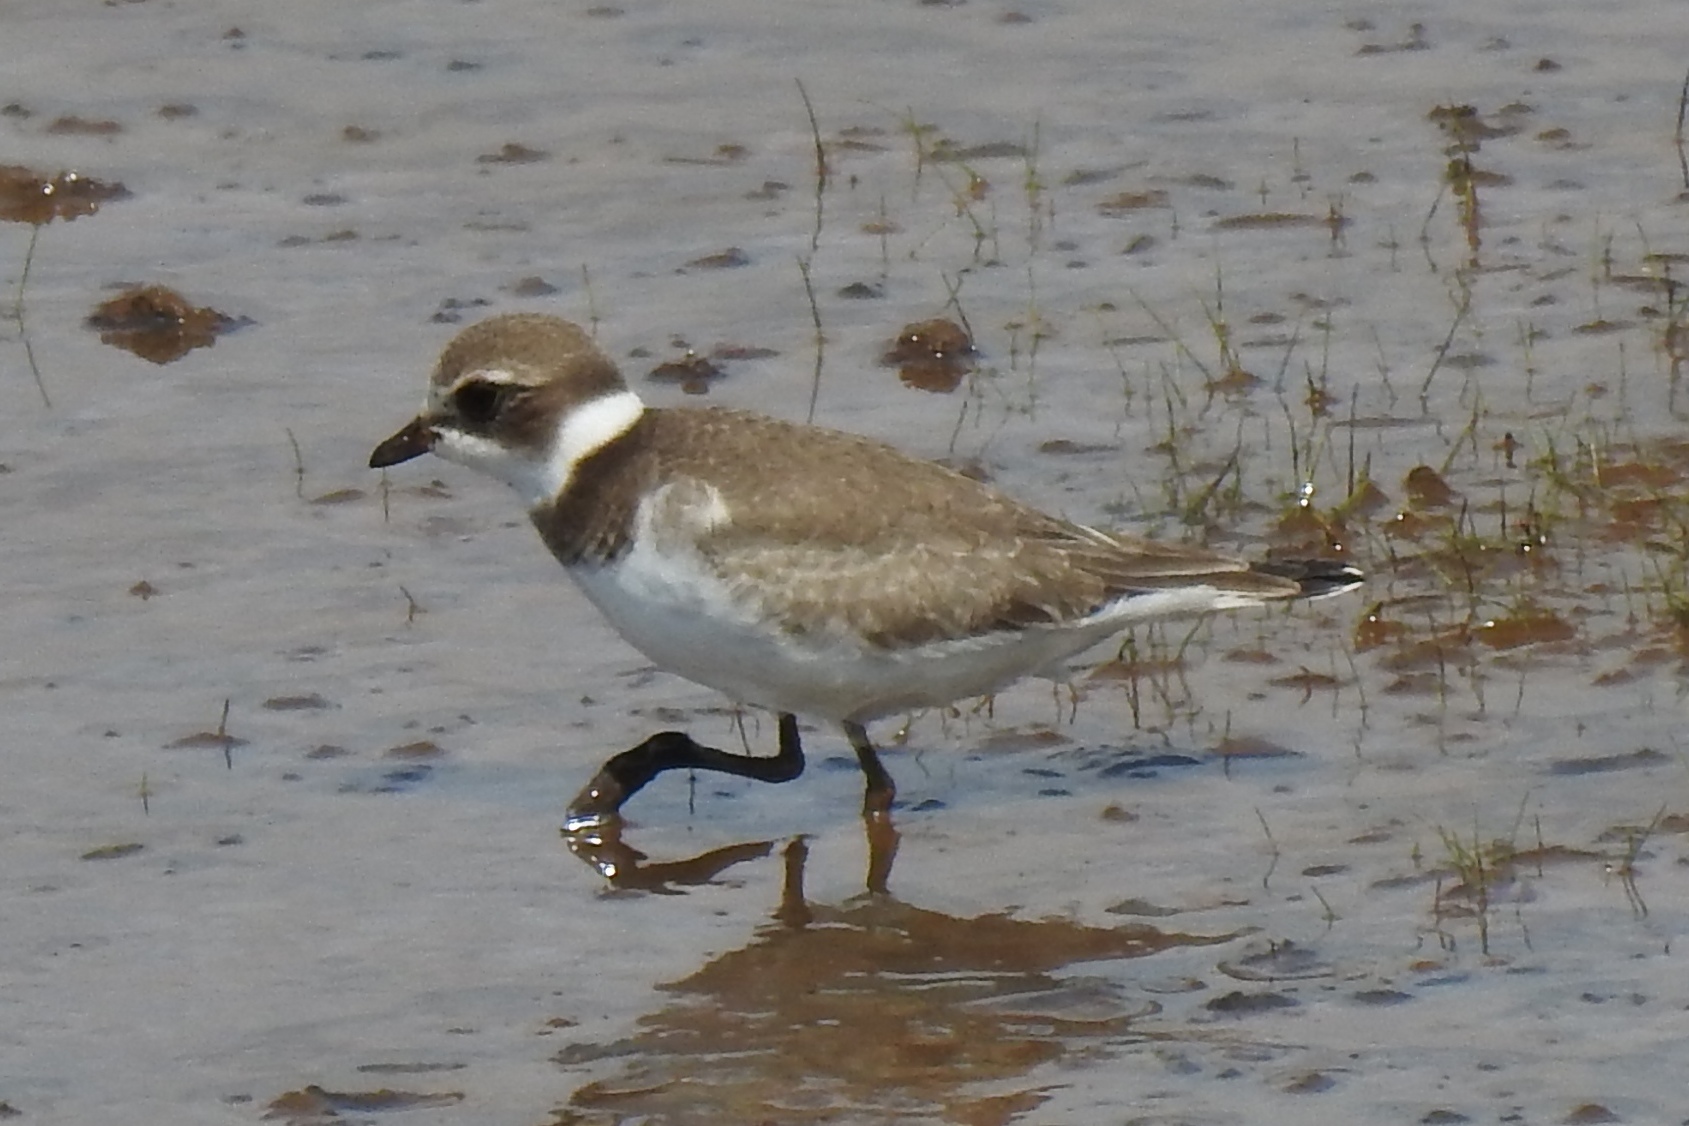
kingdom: Animalia
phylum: Chordata
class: Aves
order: Charadriiformes
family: Charadriidae
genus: Charadrius
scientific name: Charadrius semipalmatus
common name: Semipalmated plover
